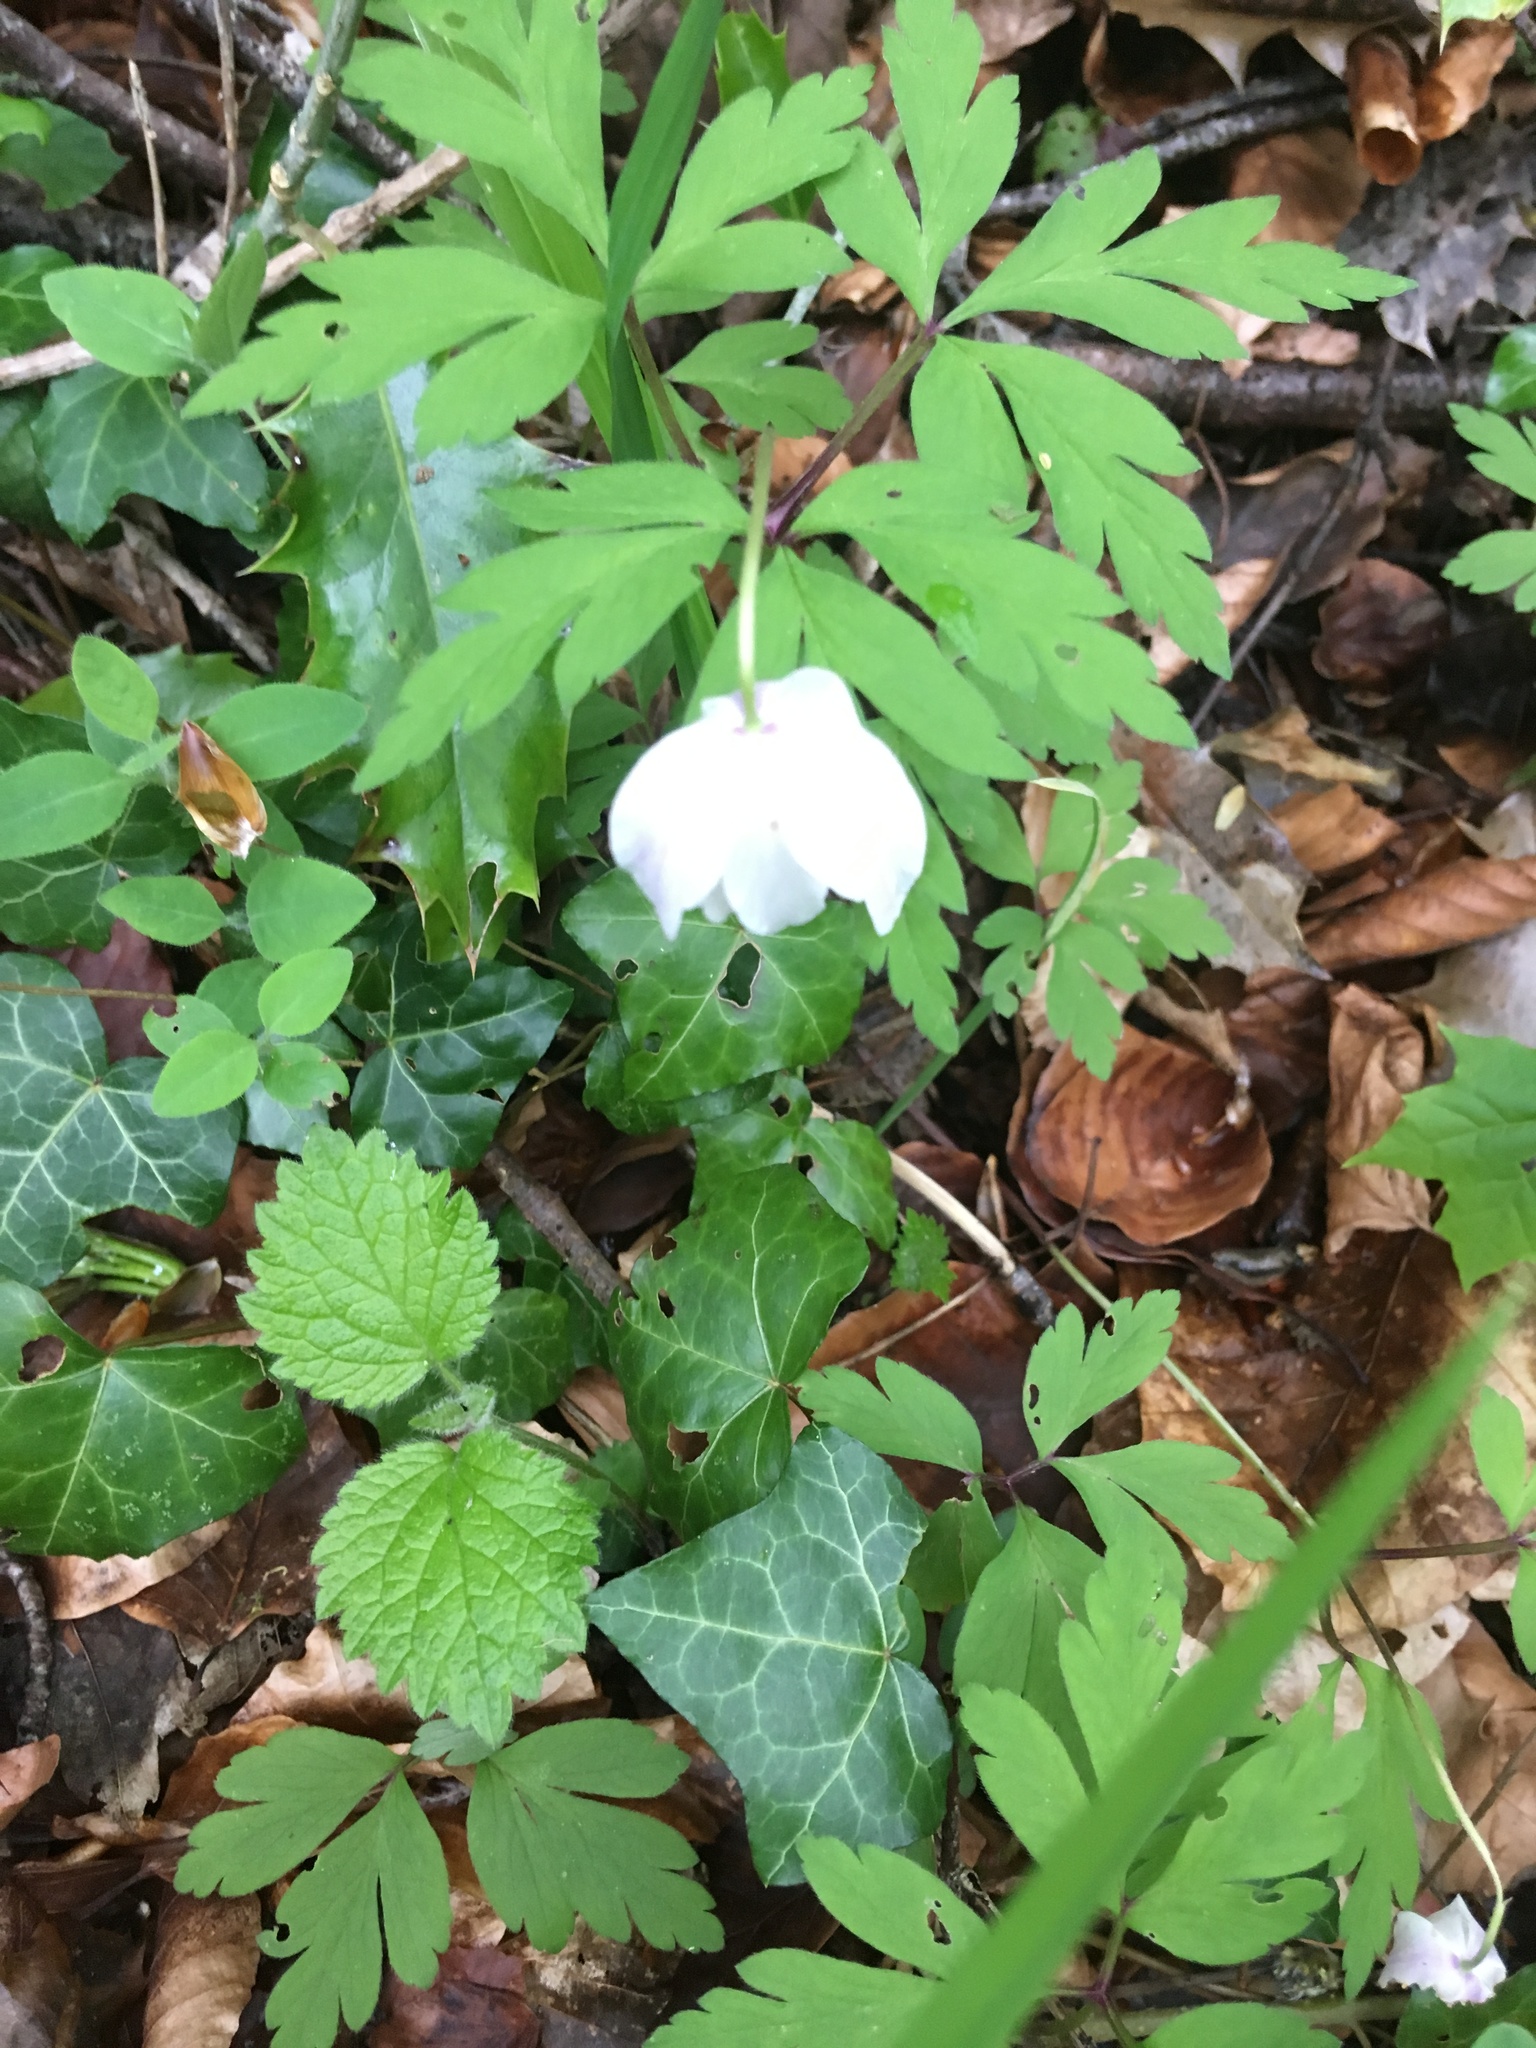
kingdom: Plantae
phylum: Tracheophyta
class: Magnoliopsida
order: Ranunculales
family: Ranunculaceae
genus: Anemone
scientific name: Anemone nemorosa
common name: Wood anemone
